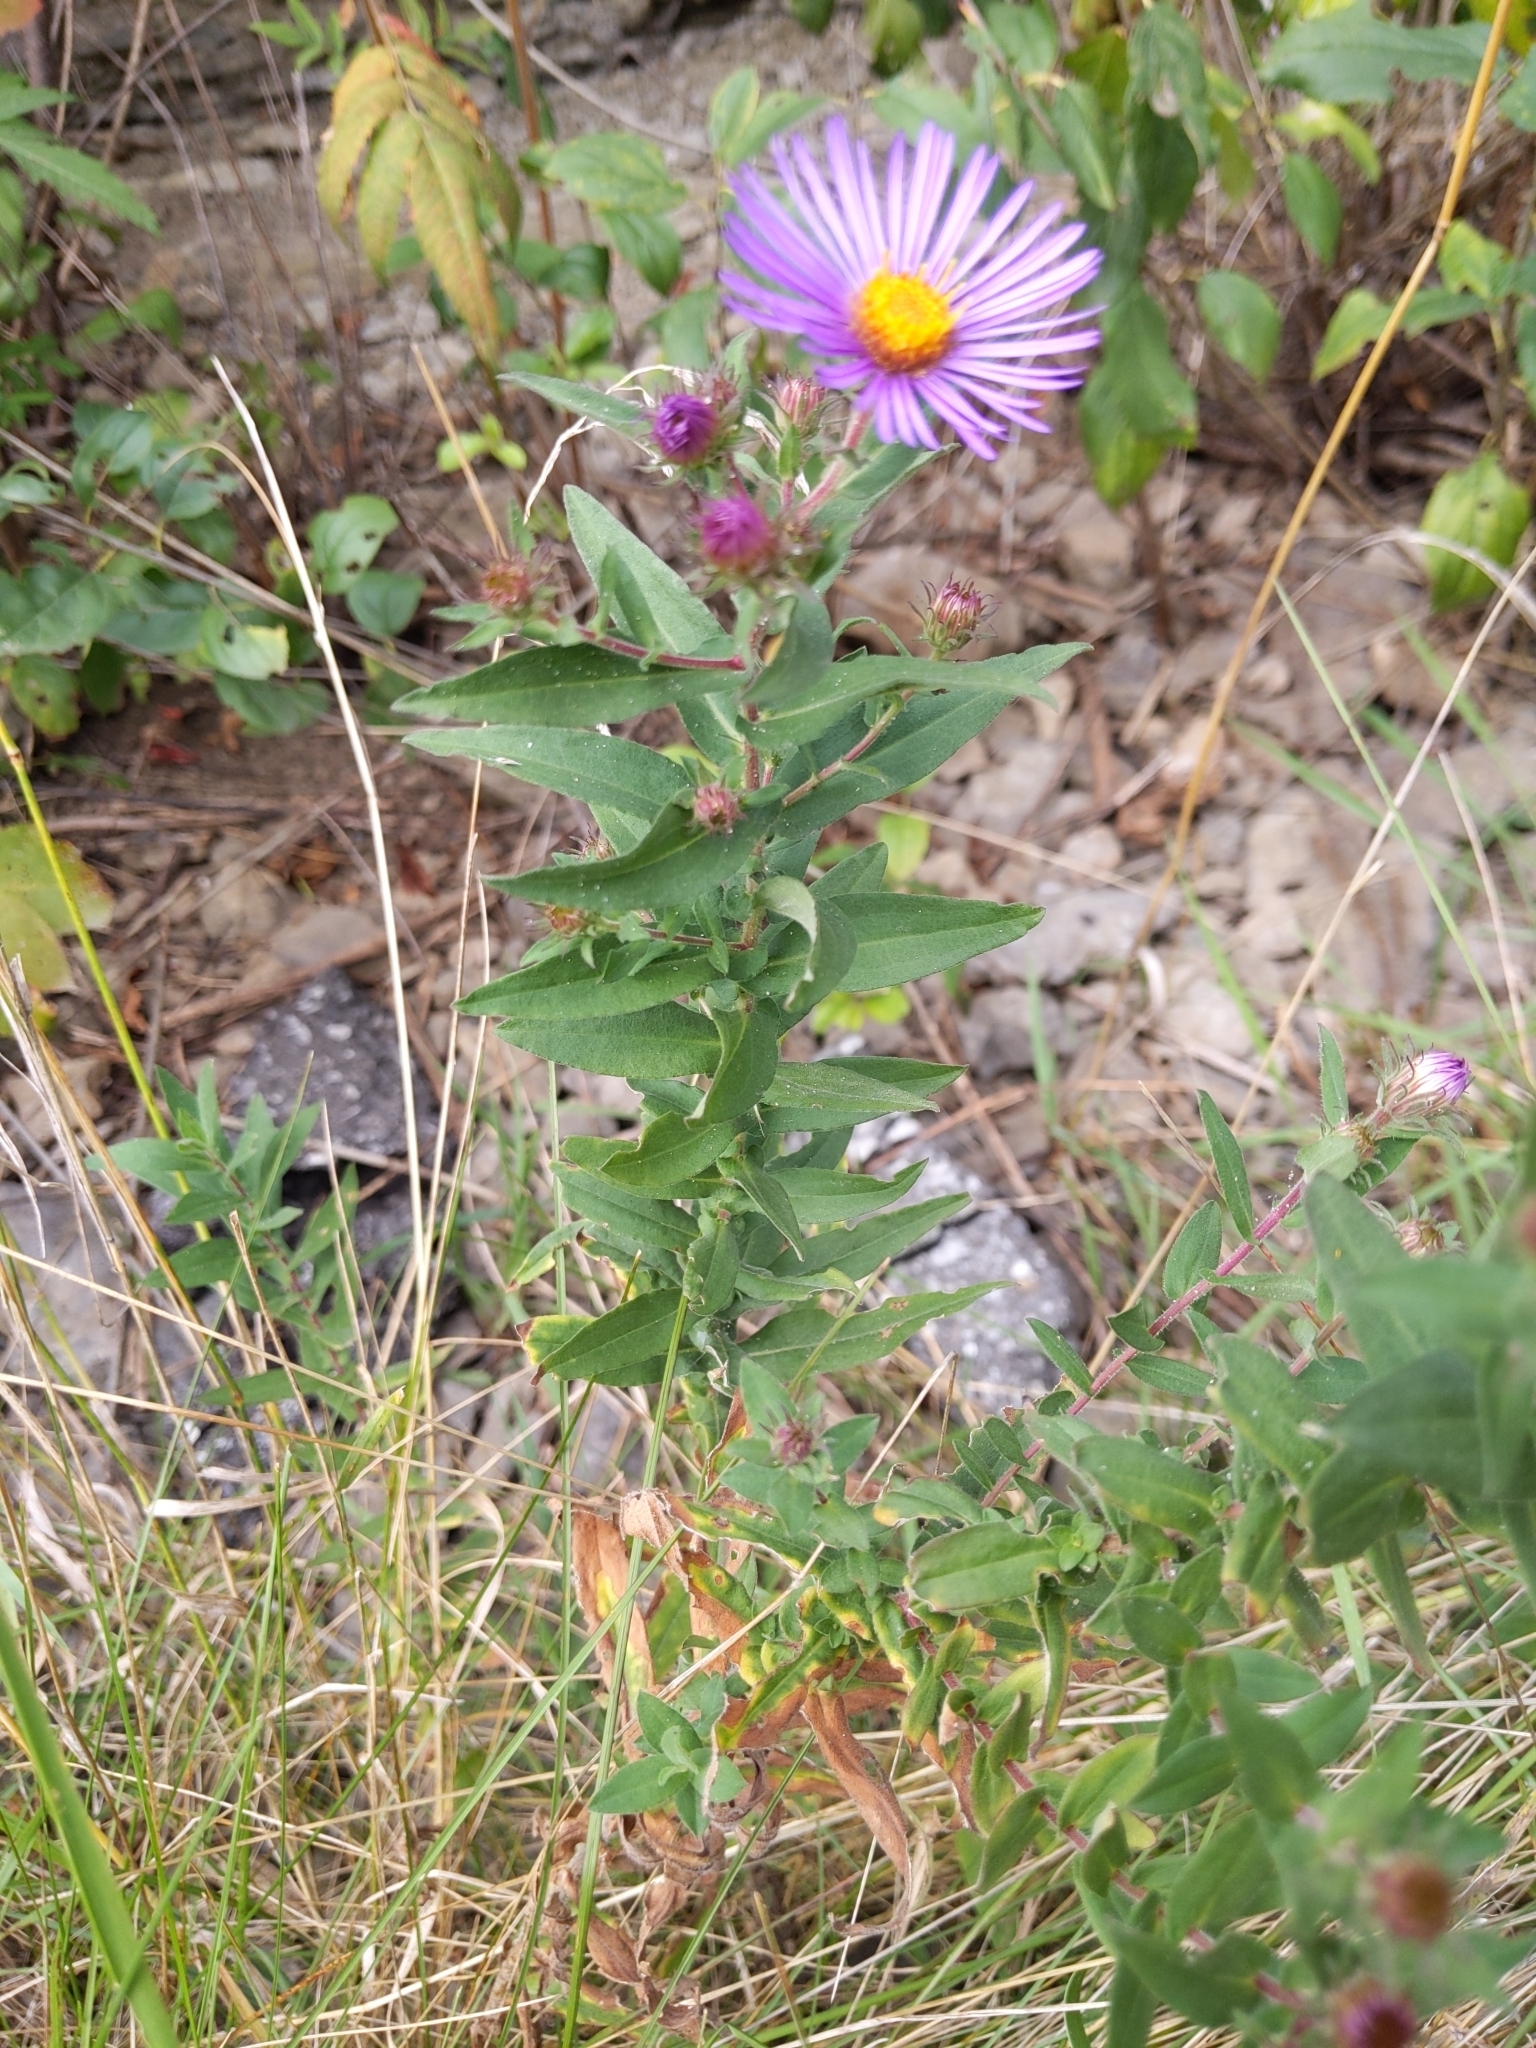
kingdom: Plantae
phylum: Tracheophyta
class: Magnoliopsida
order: Asterales
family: Asteraceae
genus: Symphyotrichum
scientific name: Symphyotrichum novae-angliae
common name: Michaelmas daisy
